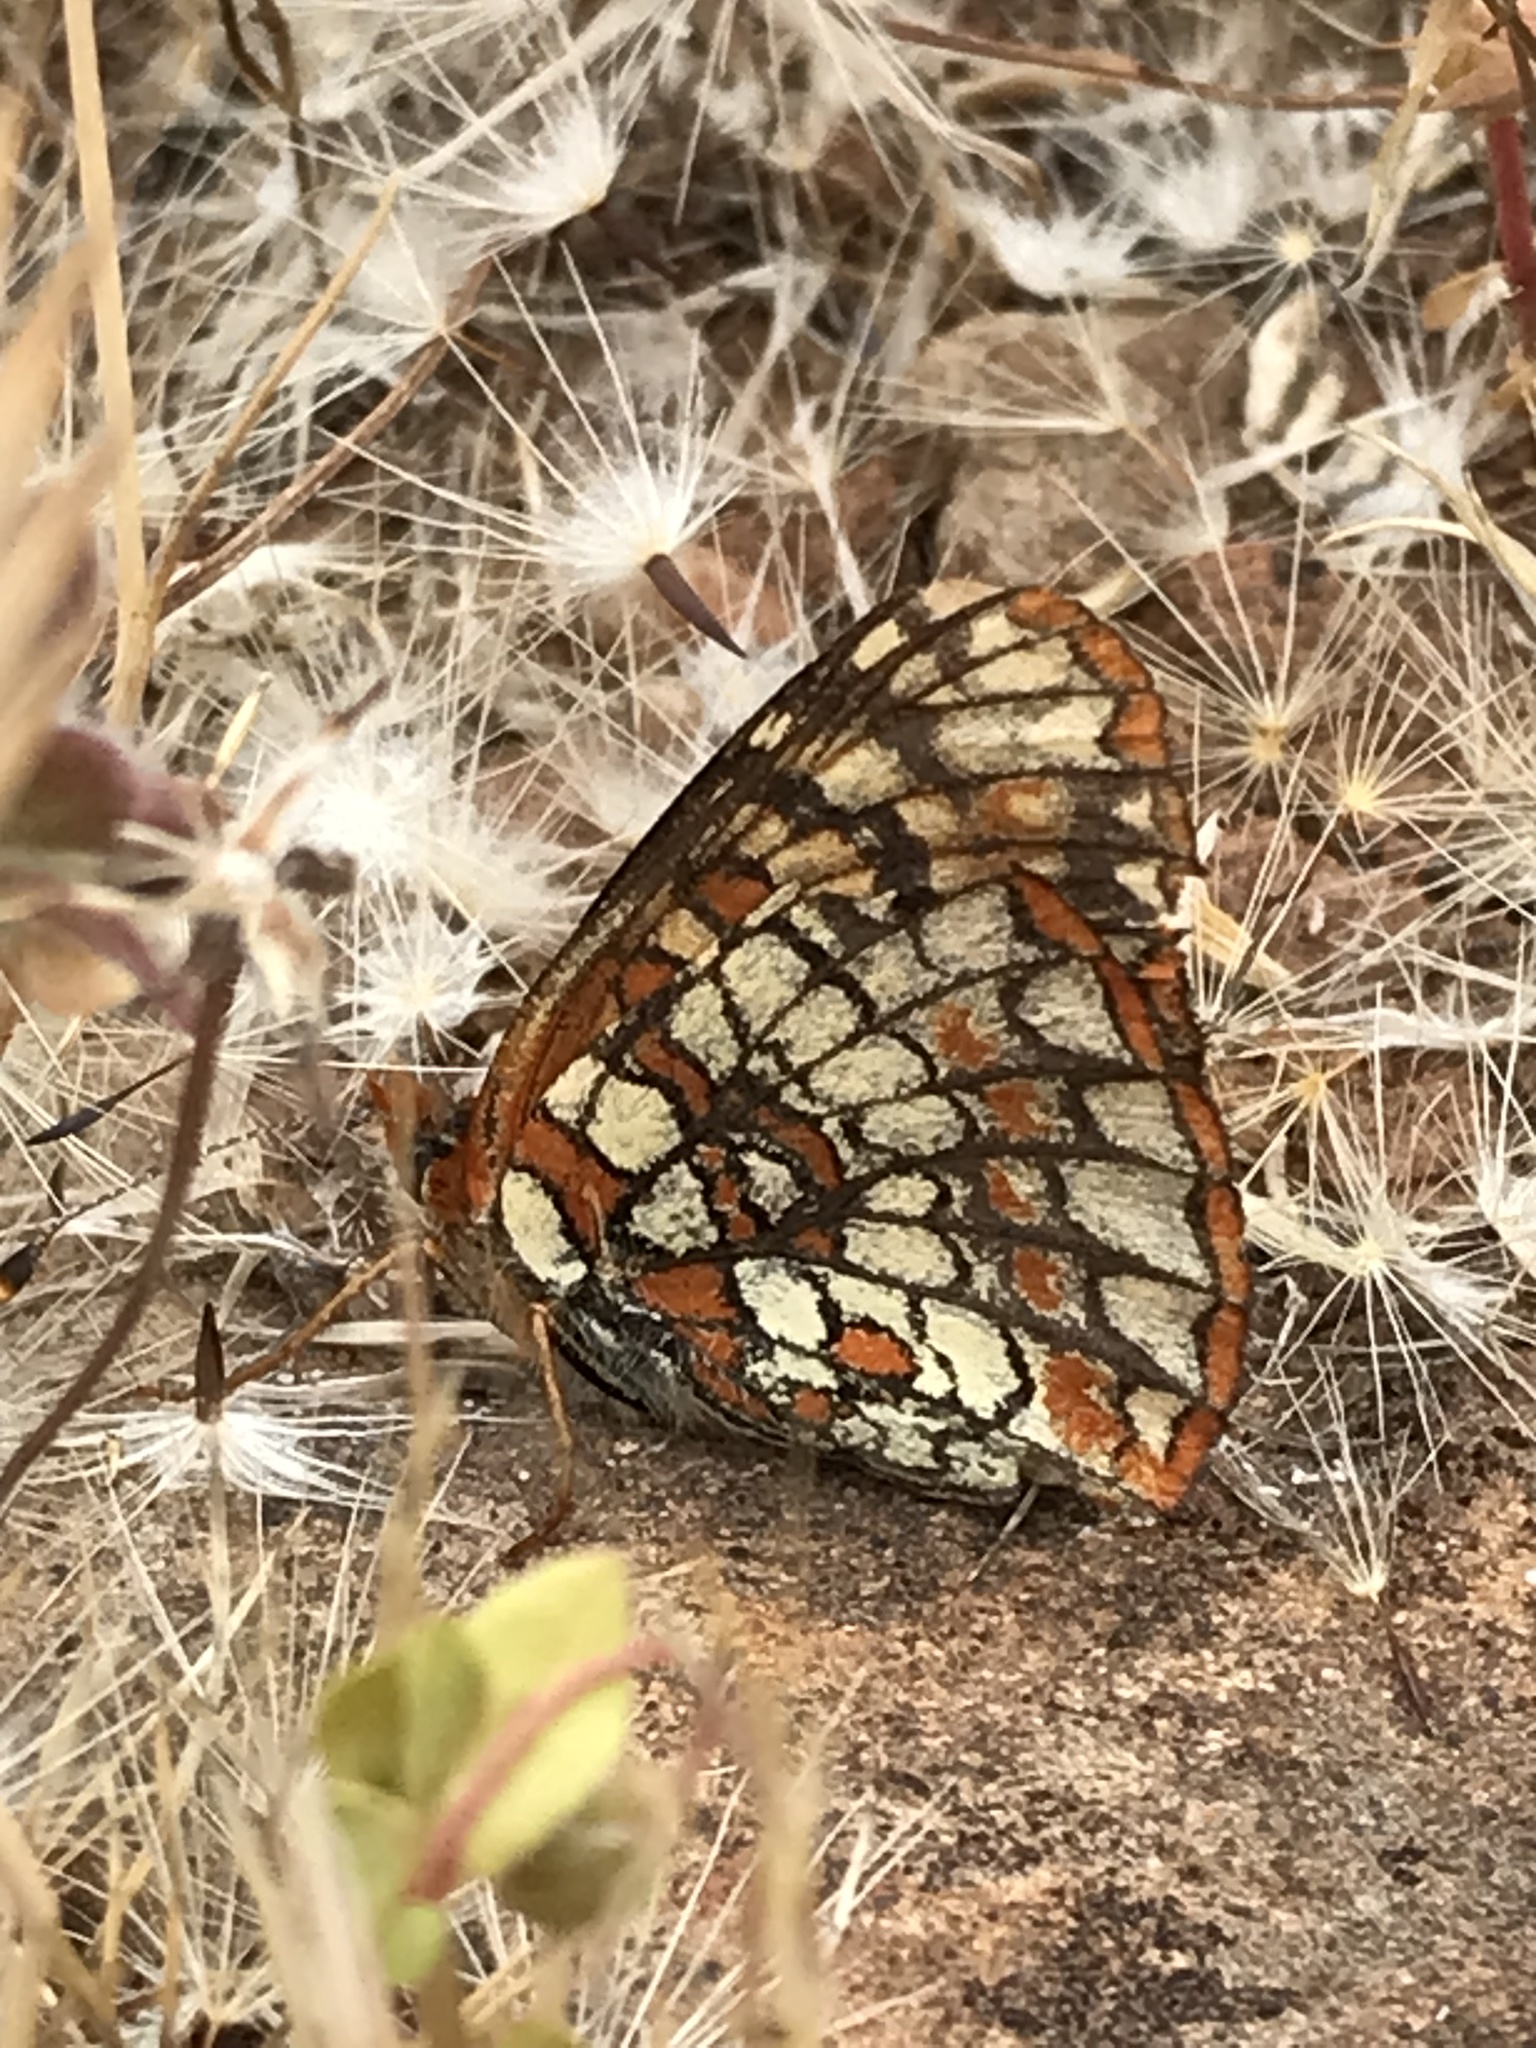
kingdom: Animalia
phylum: Arthropoda
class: Insecta
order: Lepidoptera
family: Nymphalidae
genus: Chlosyne
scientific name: Chlosyne palla
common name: Northern checkerspot
